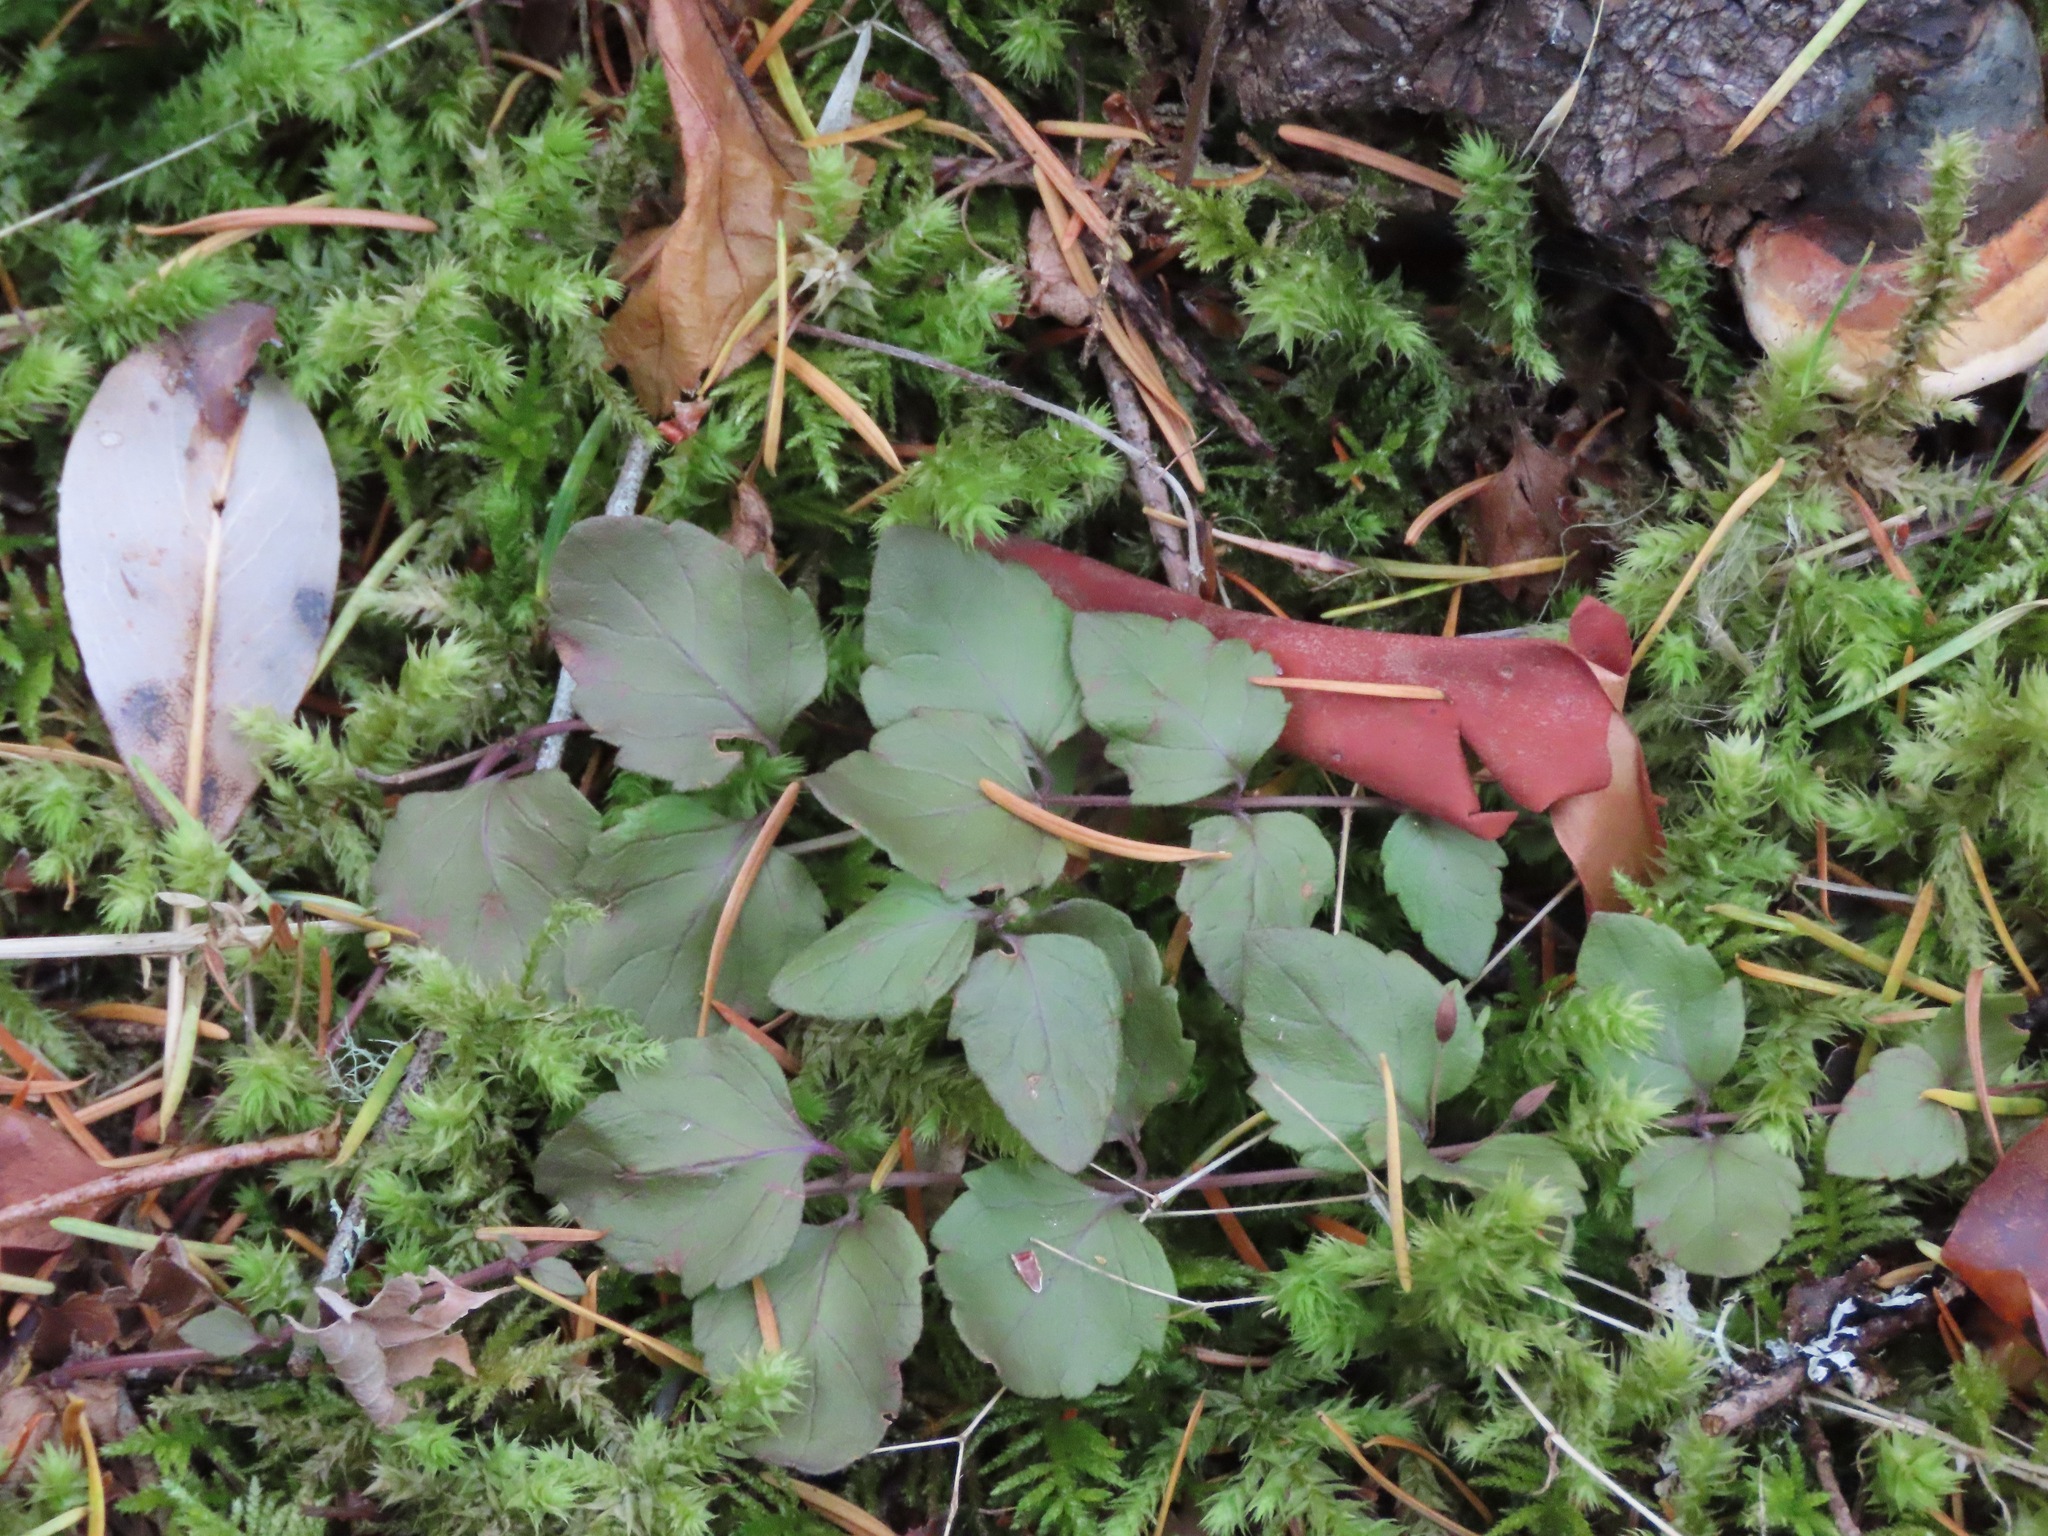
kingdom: Plantae
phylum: Tracheophyta
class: Magnoliopsida
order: Lamiales
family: Lamiaceae
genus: Micromeria
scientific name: Micromeria douglasii
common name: Yerba buena
